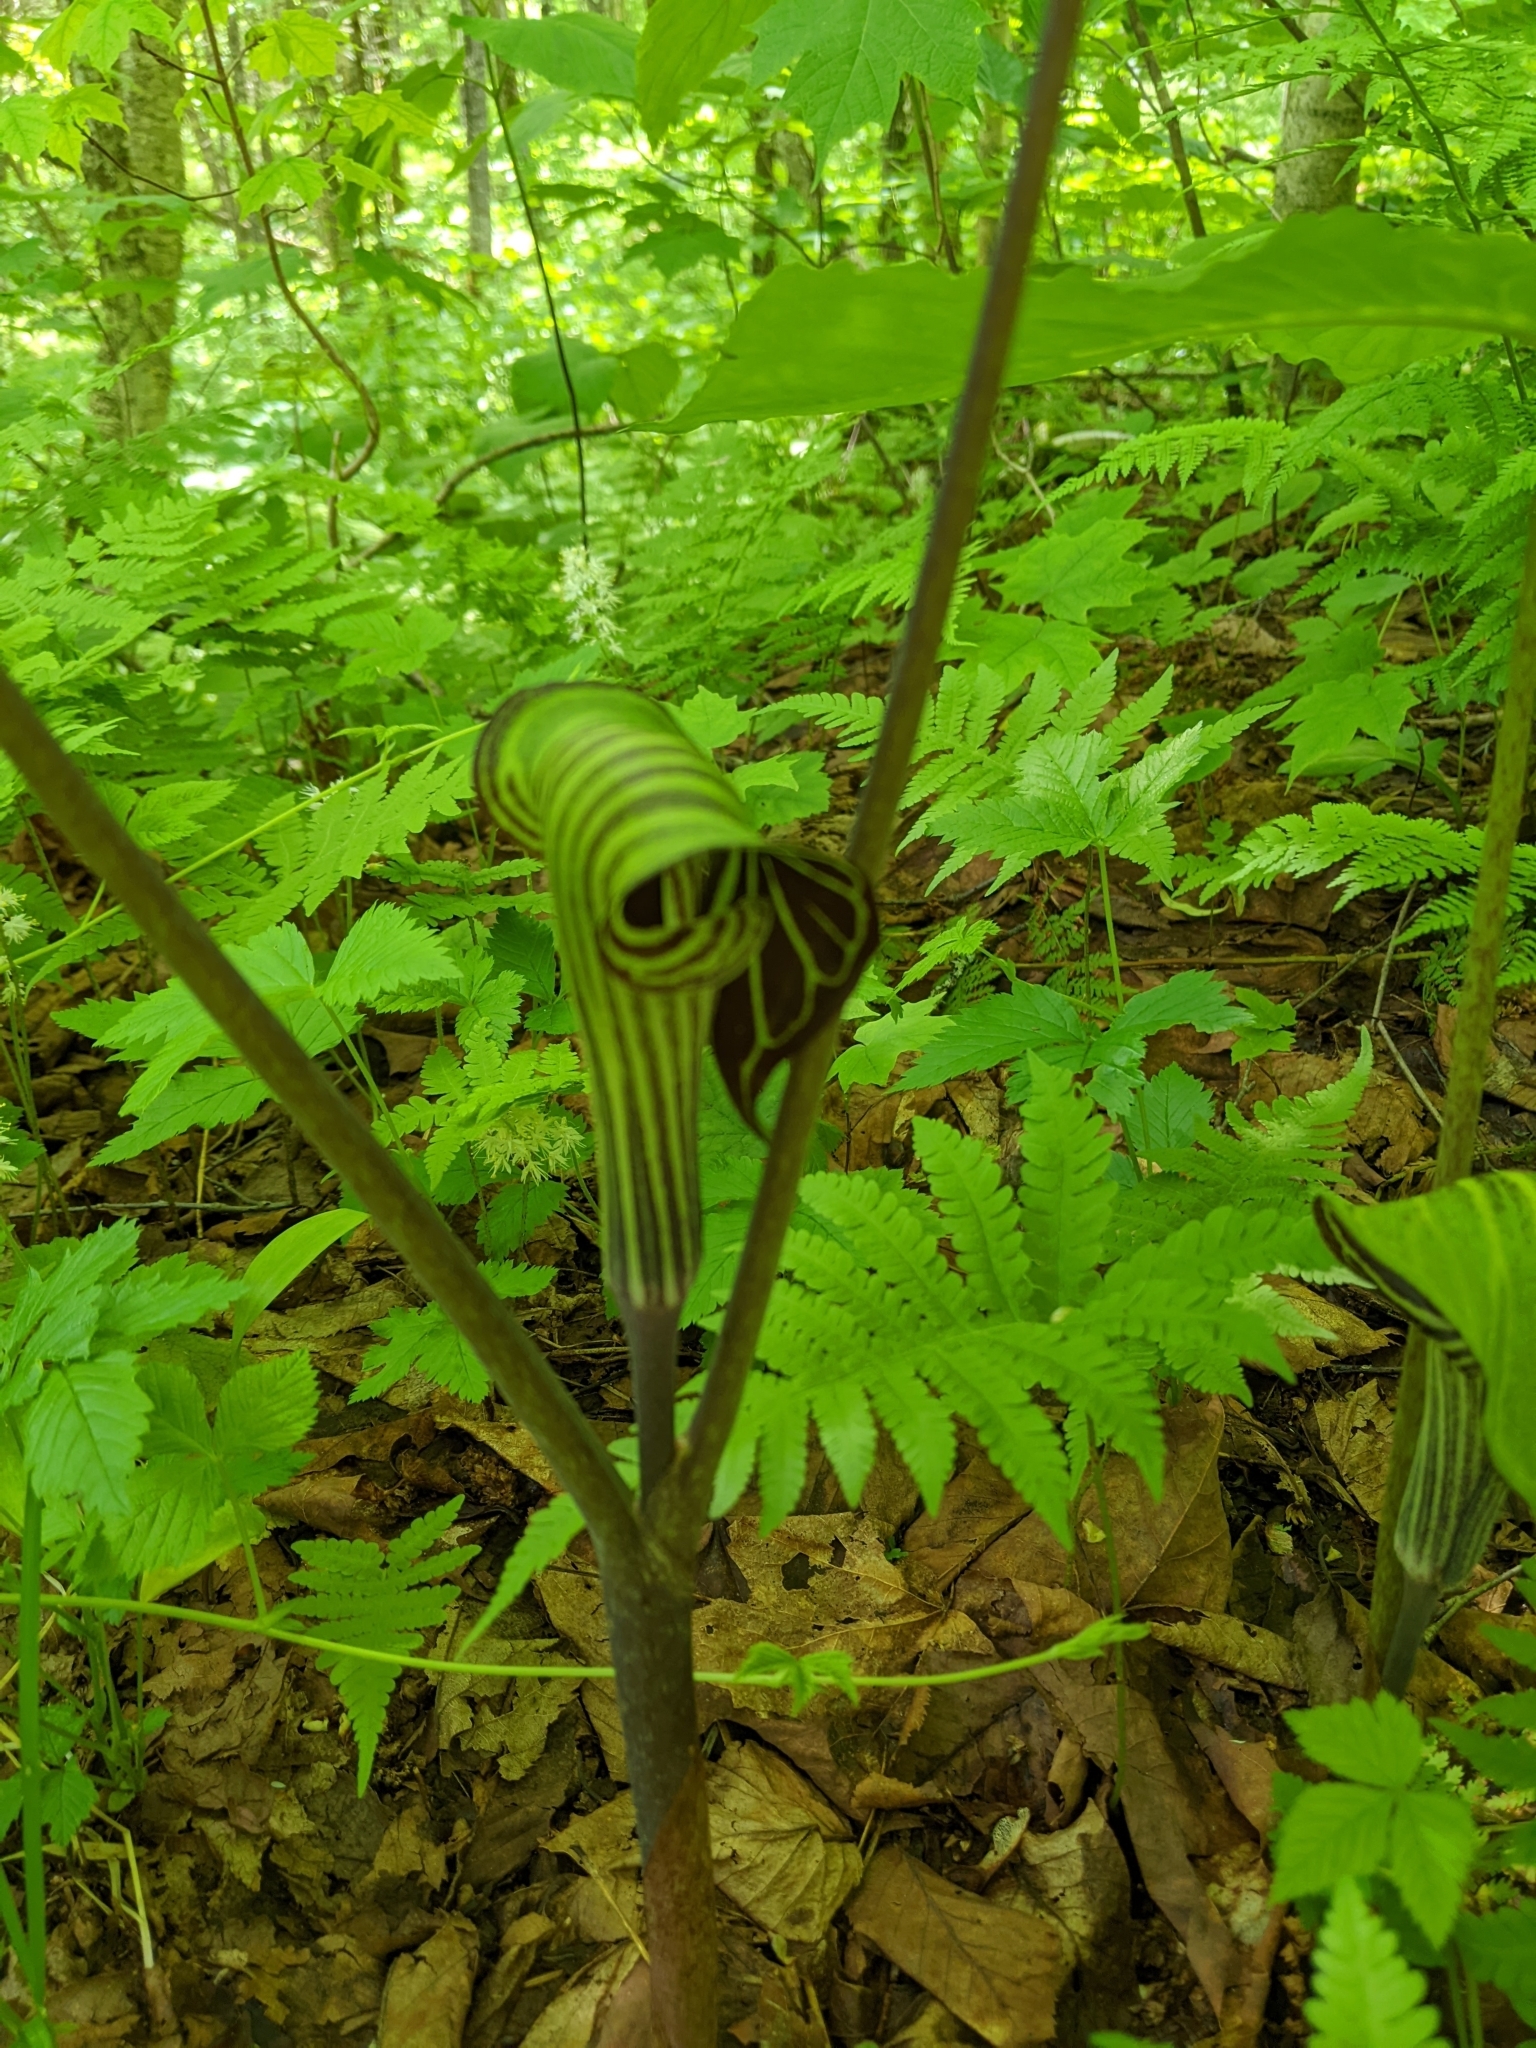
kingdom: Plantae
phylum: Tracheophyta
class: Liliopsida
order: Alismatales
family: Araceae
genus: Arisaema
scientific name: Arisaema triphyllum
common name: Jack-in-the-pulpit
